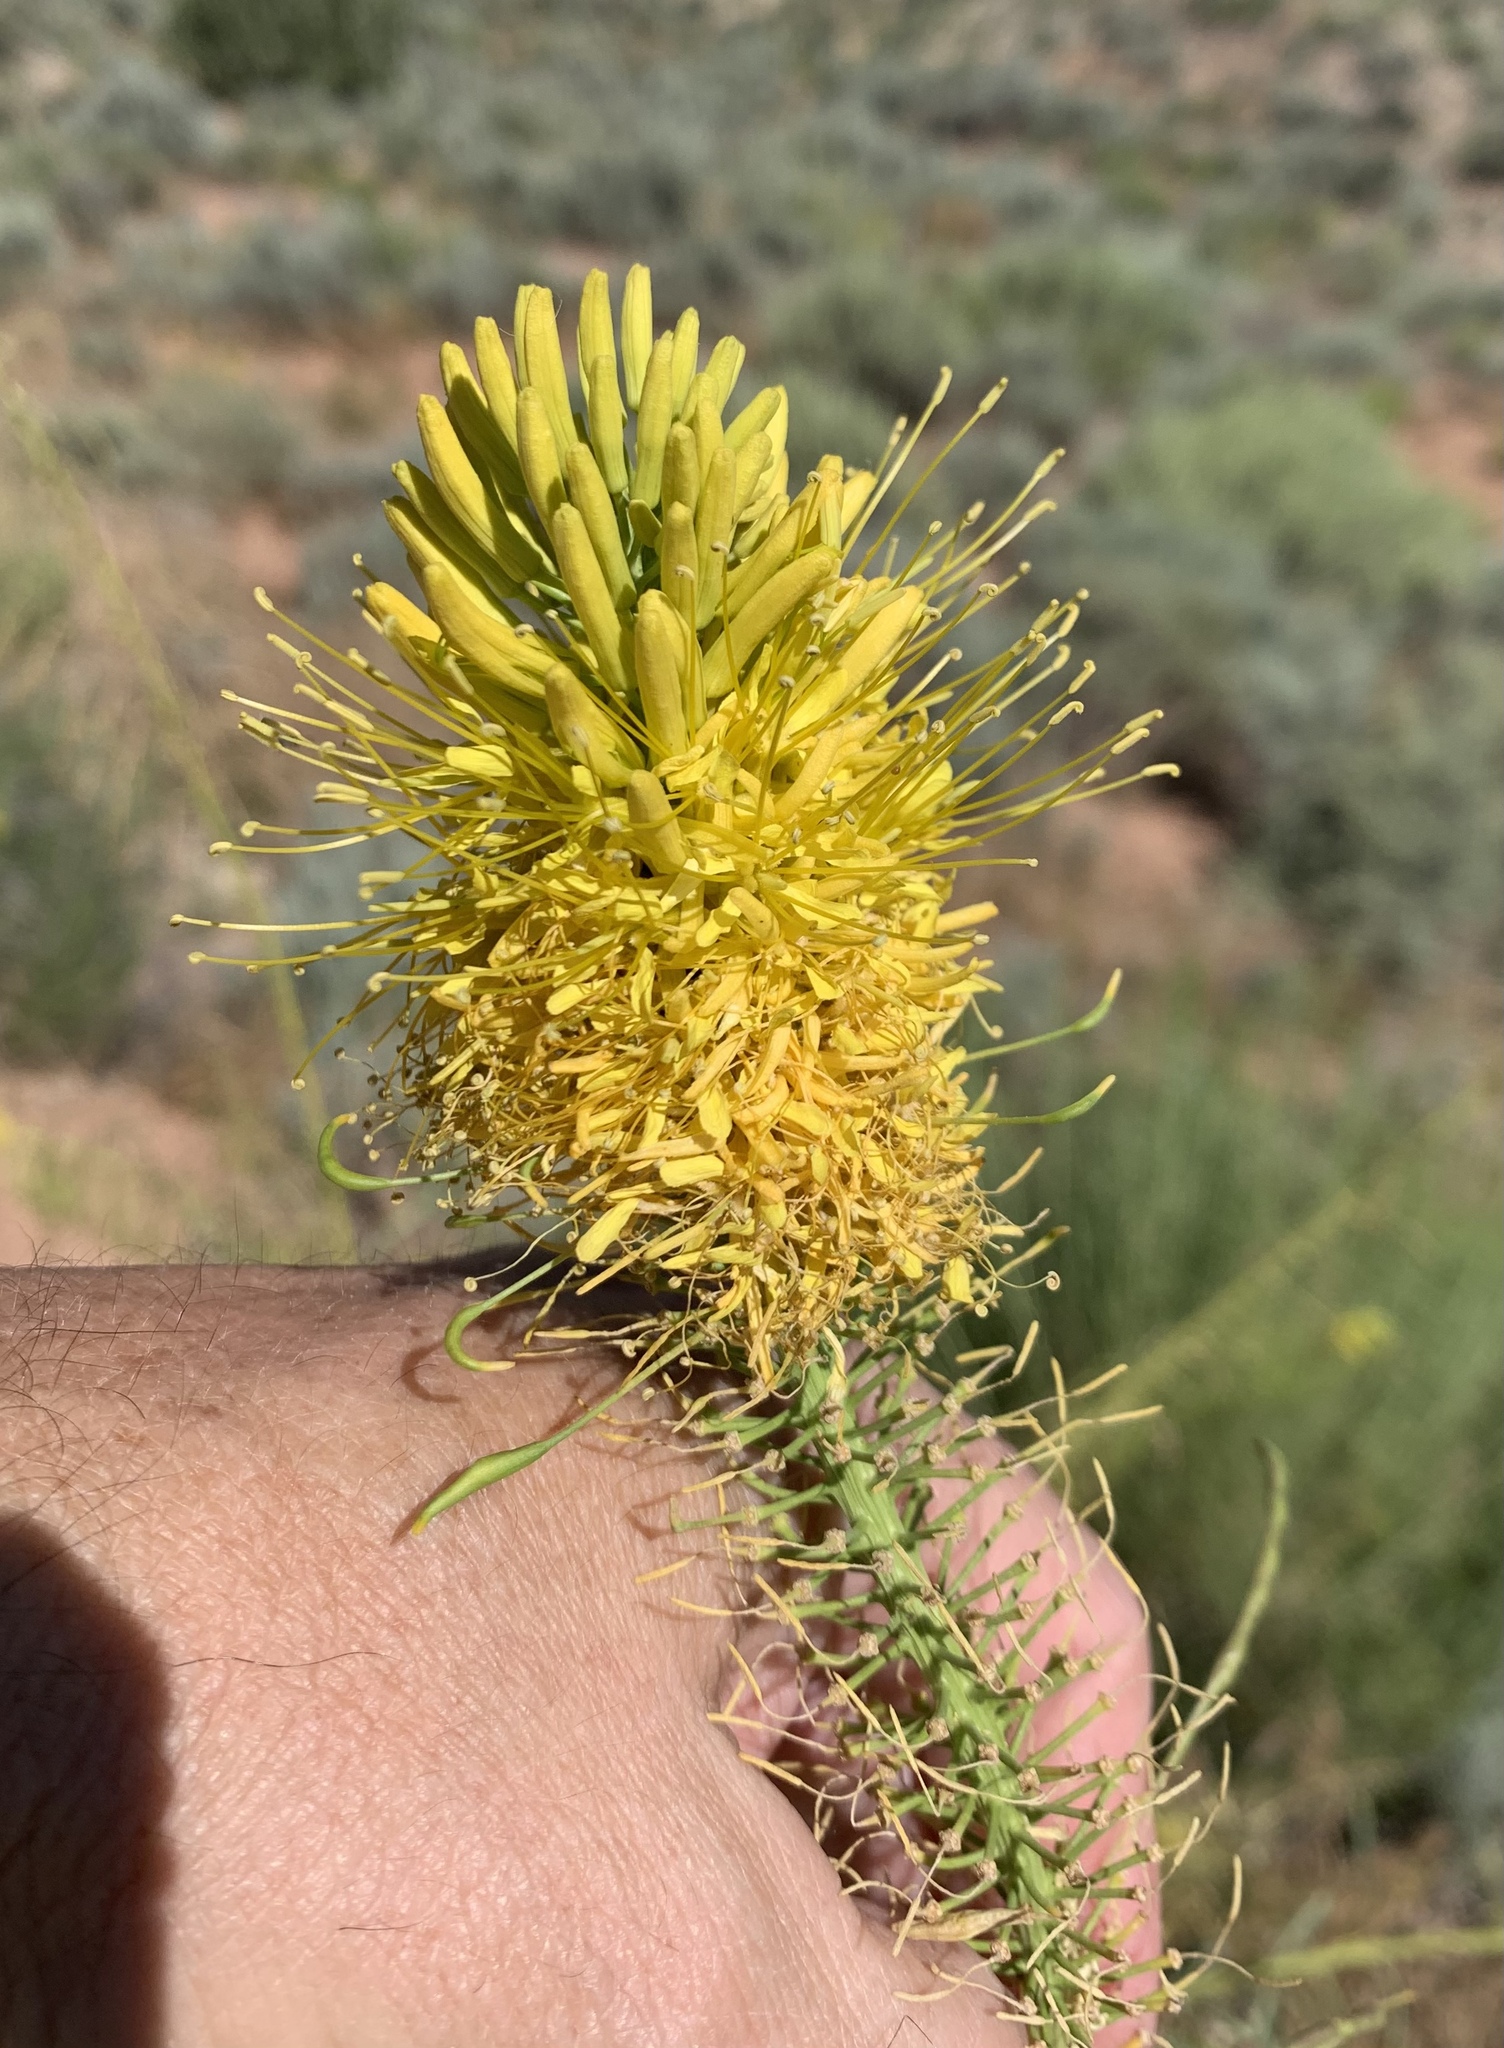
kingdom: Plantae
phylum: Tracheophyta
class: Magnoliopsida
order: Brassicales
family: Cleomaceae
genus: Cleomella
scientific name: Cleomella lutea
